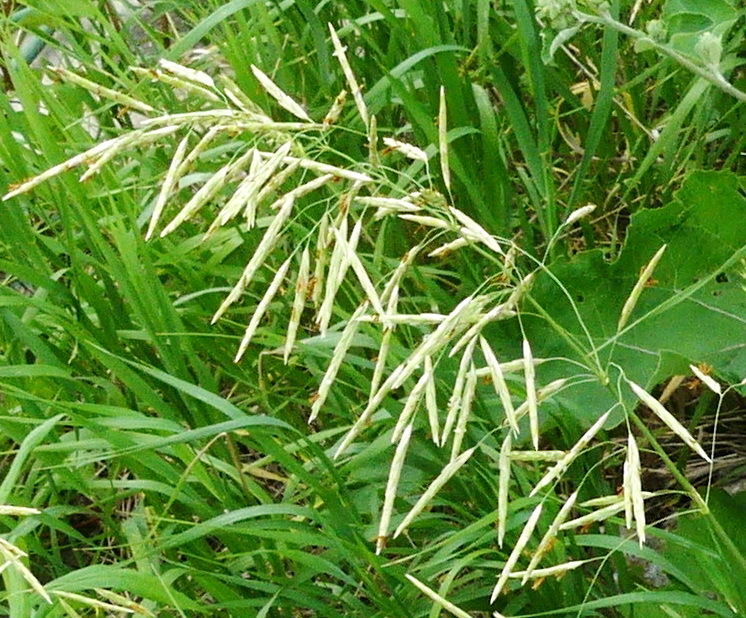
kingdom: Plantae
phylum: Tracheophyta
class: Liliopsida
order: Poales
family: Poaceae
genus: Bromus
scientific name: Bromus inermis
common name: Smooth brome
